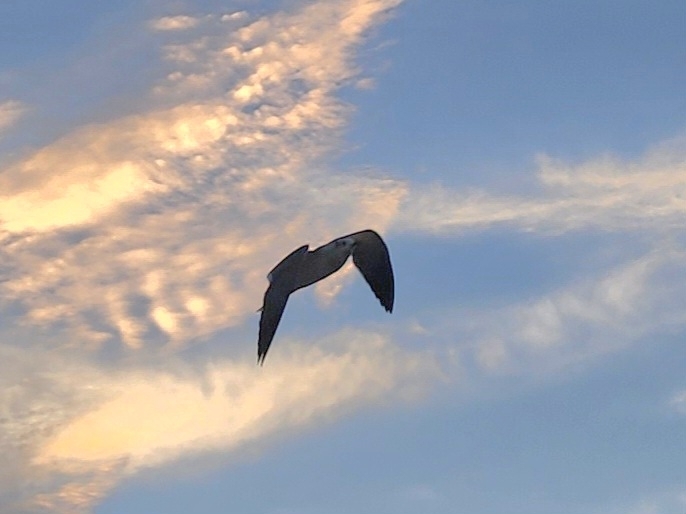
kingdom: Animalia
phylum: Chordata
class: Aves
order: Charadriiformes
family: Laridae
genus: Leucophaeus
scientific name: Leucophaeus atricilla
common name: Laughing gull
